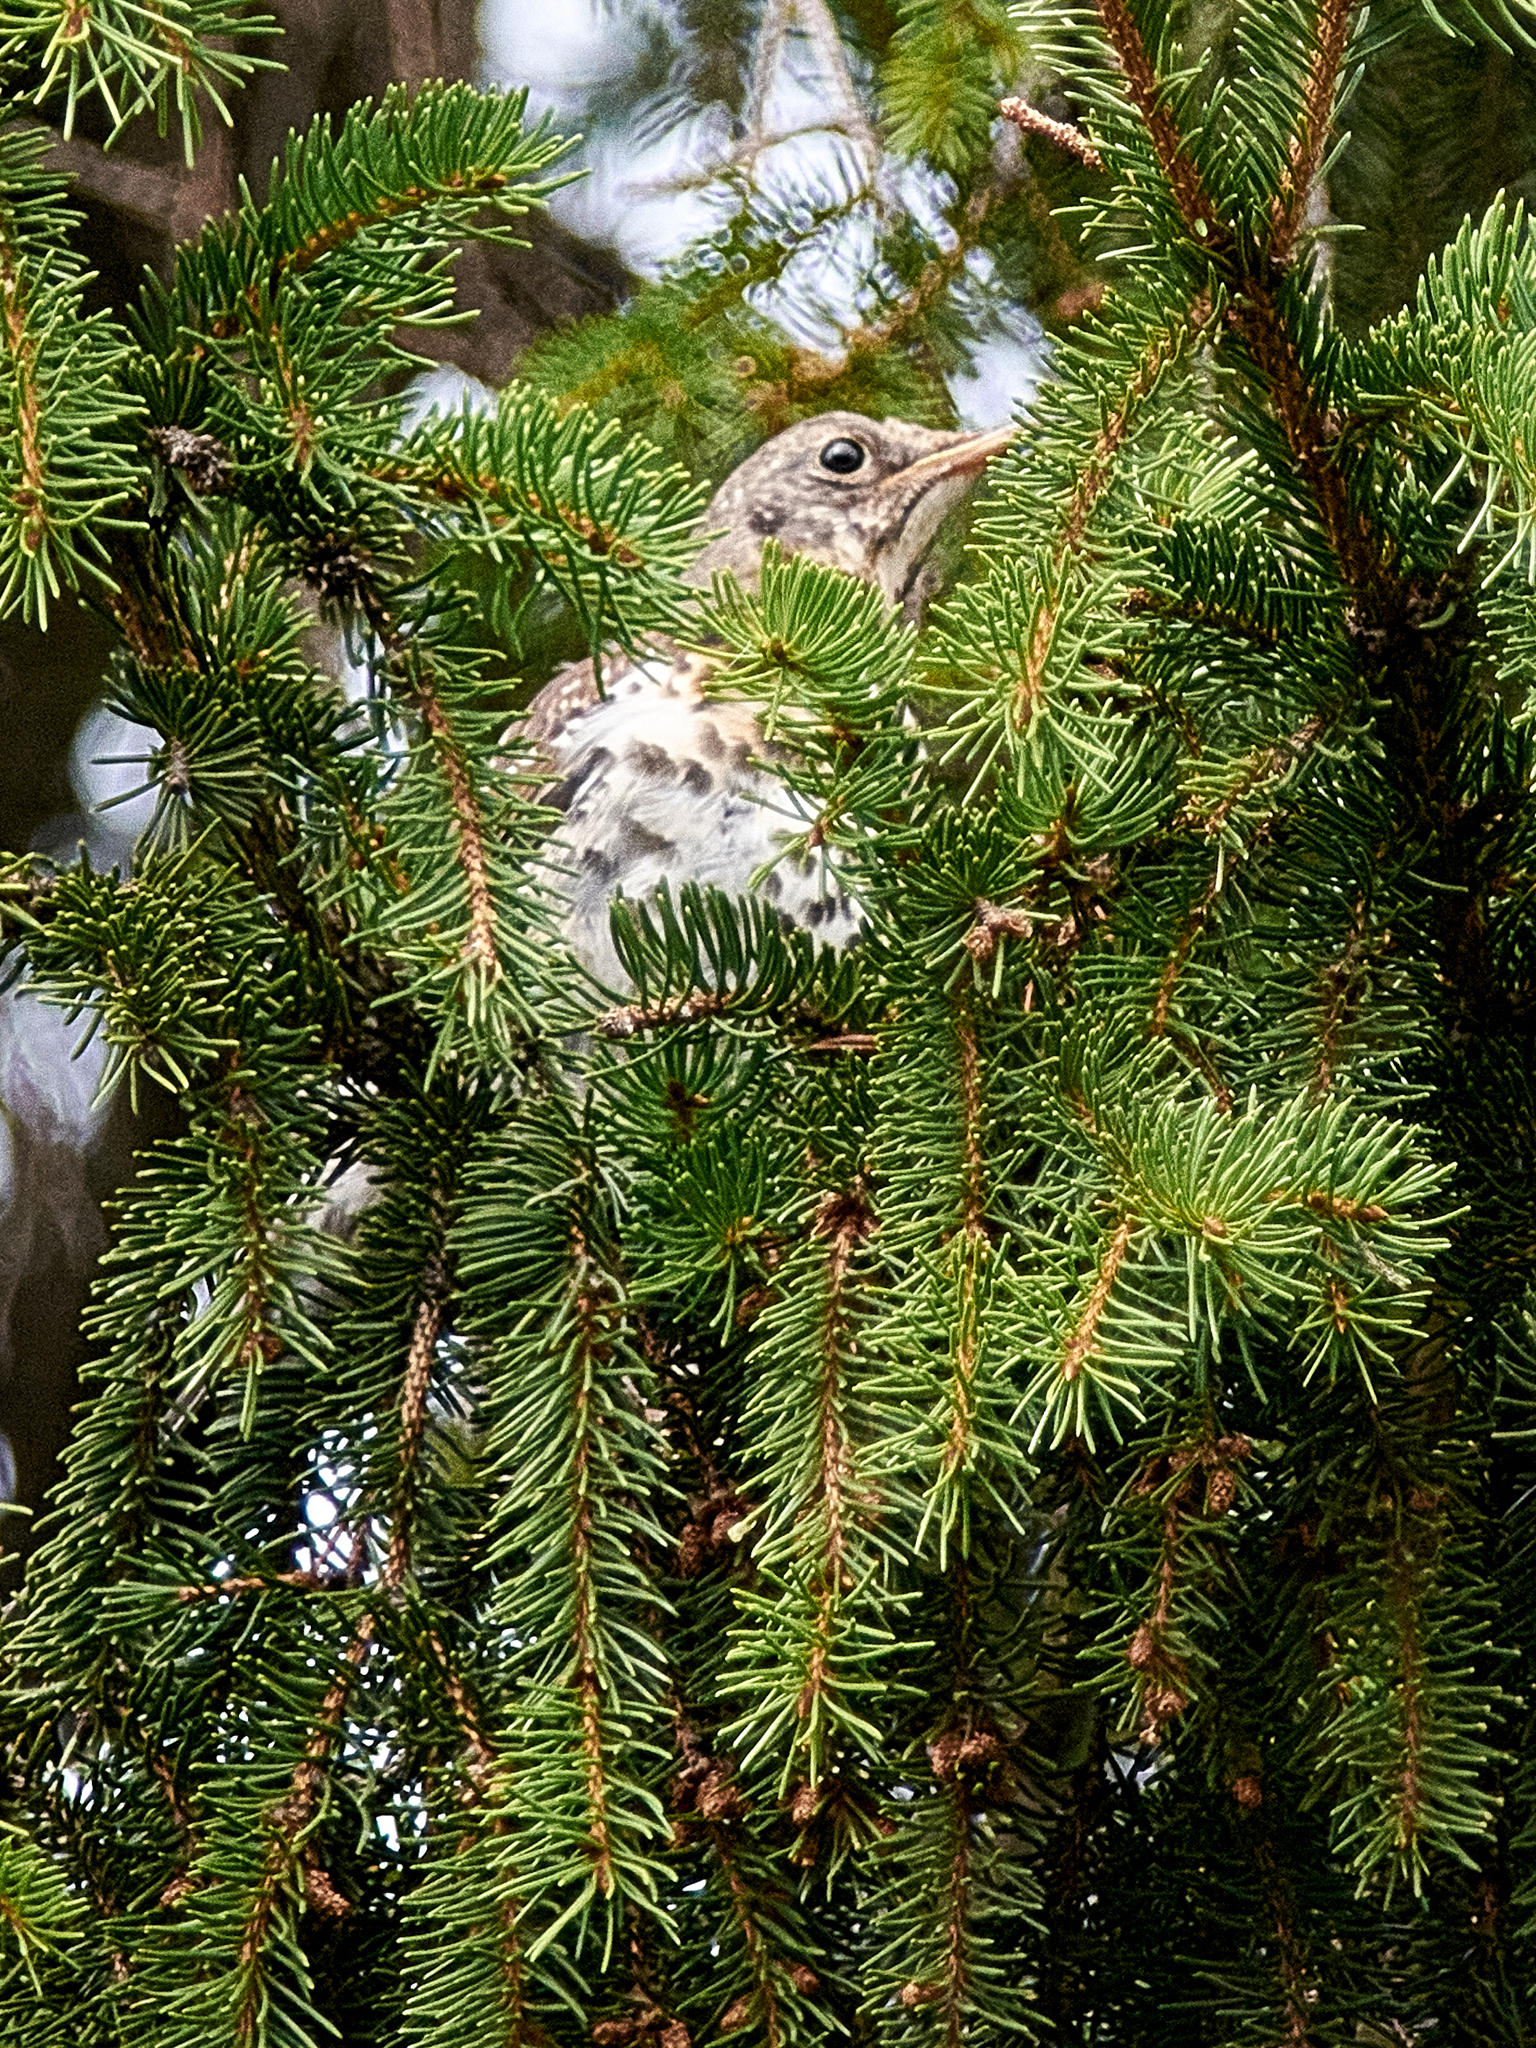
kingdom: Animalia
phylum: Chordata
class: Aves
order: Passeriformes
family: Turdidae
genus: Turdus
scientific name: Turdus pilaris
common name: Fieldfare
